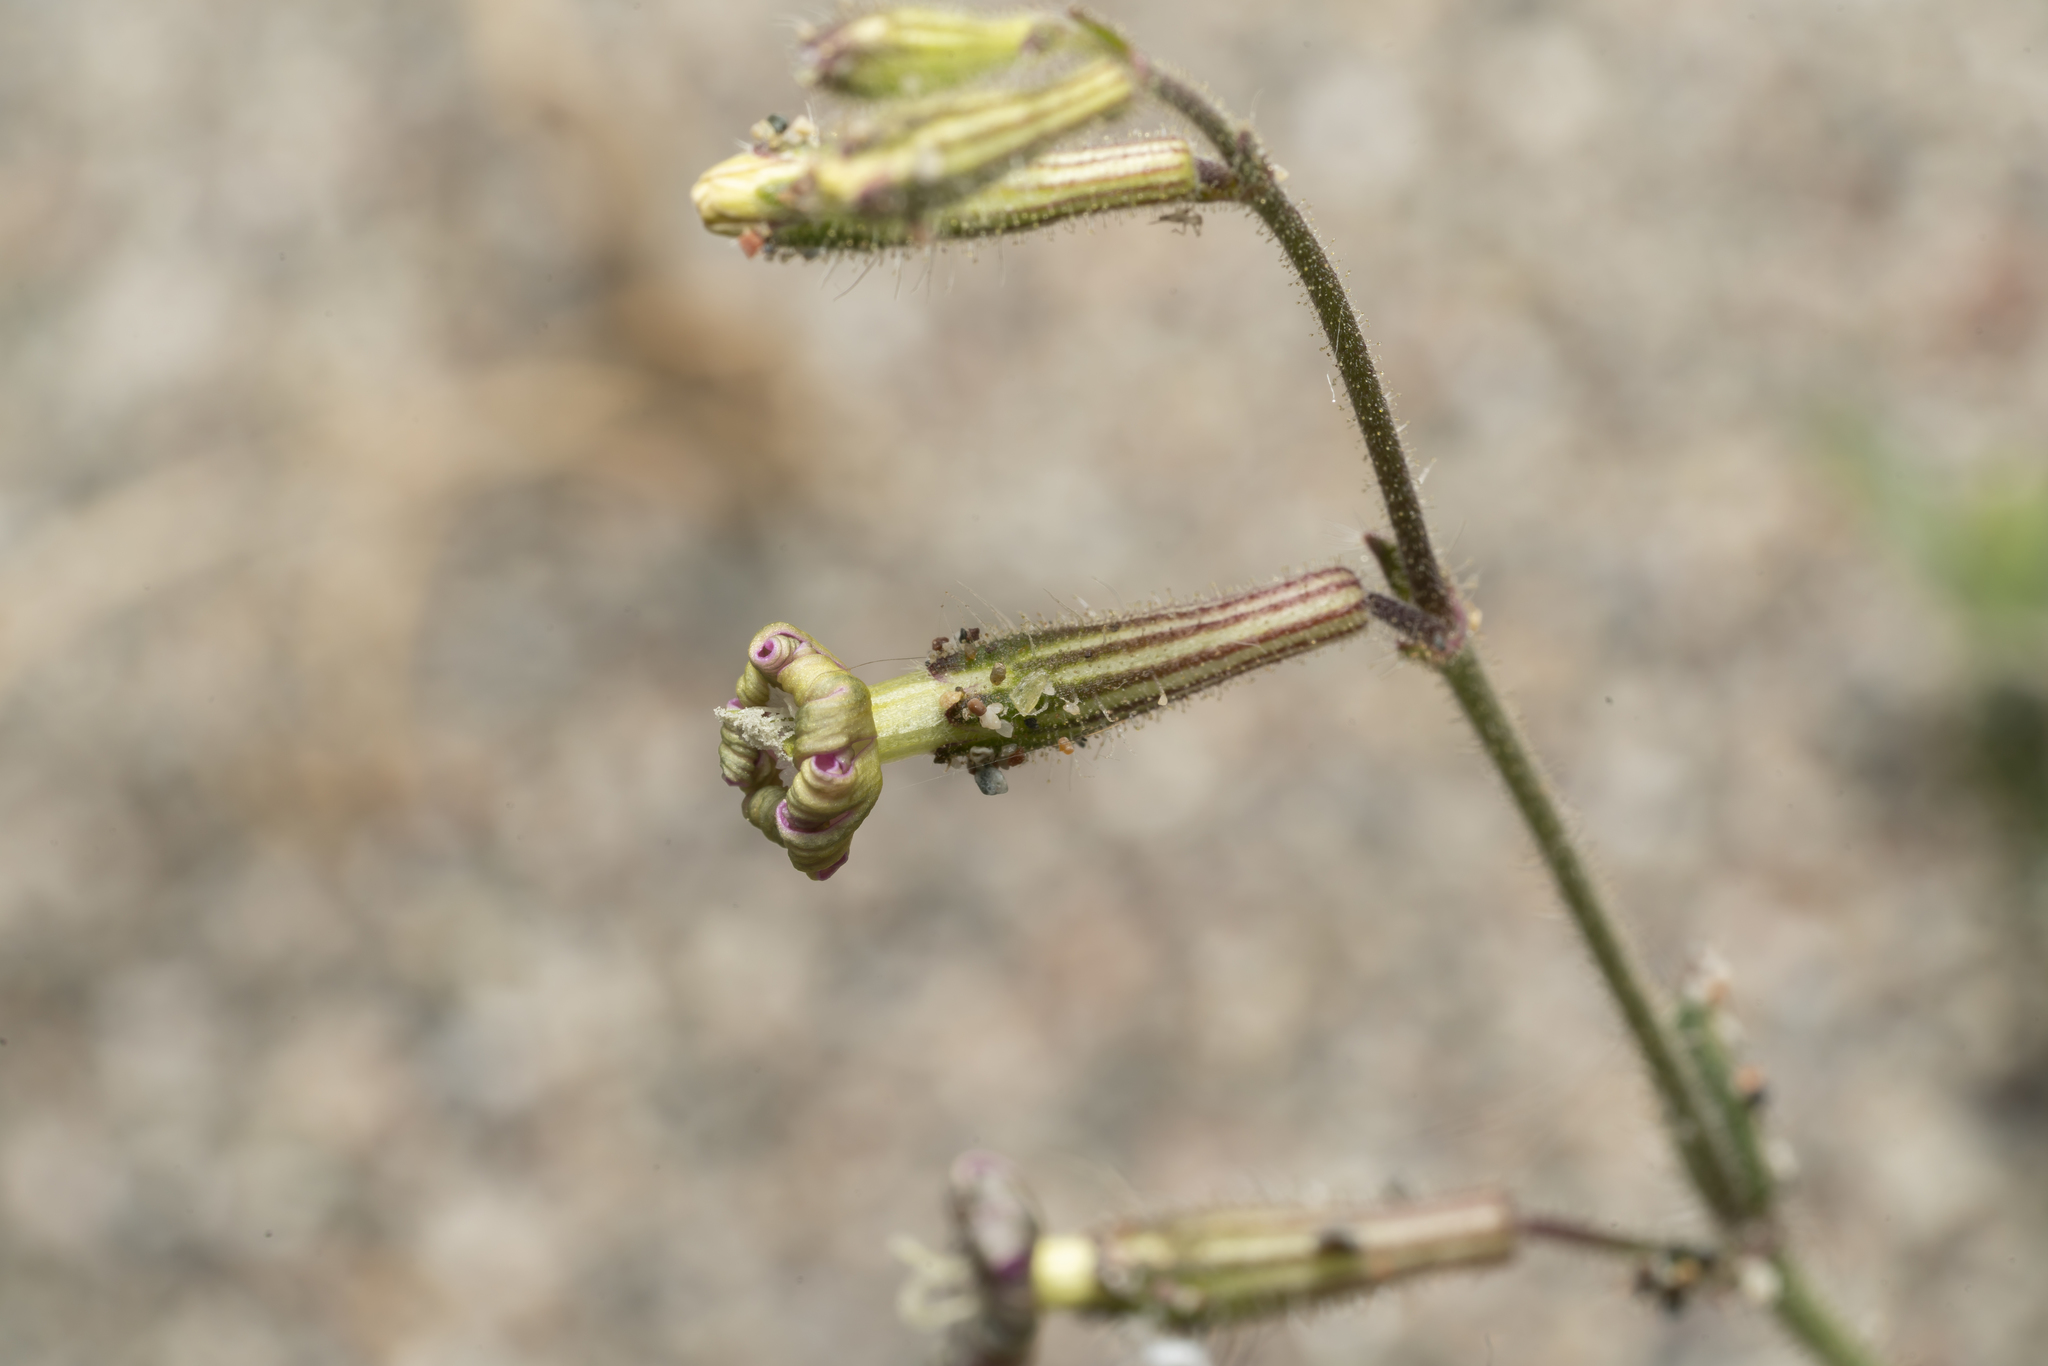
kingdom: Plantae
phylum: Tracheophyta
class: Magnoliopsida
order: Caryophyllales
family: Caryophyllaceae
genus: Silene
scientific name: Silene discolor
